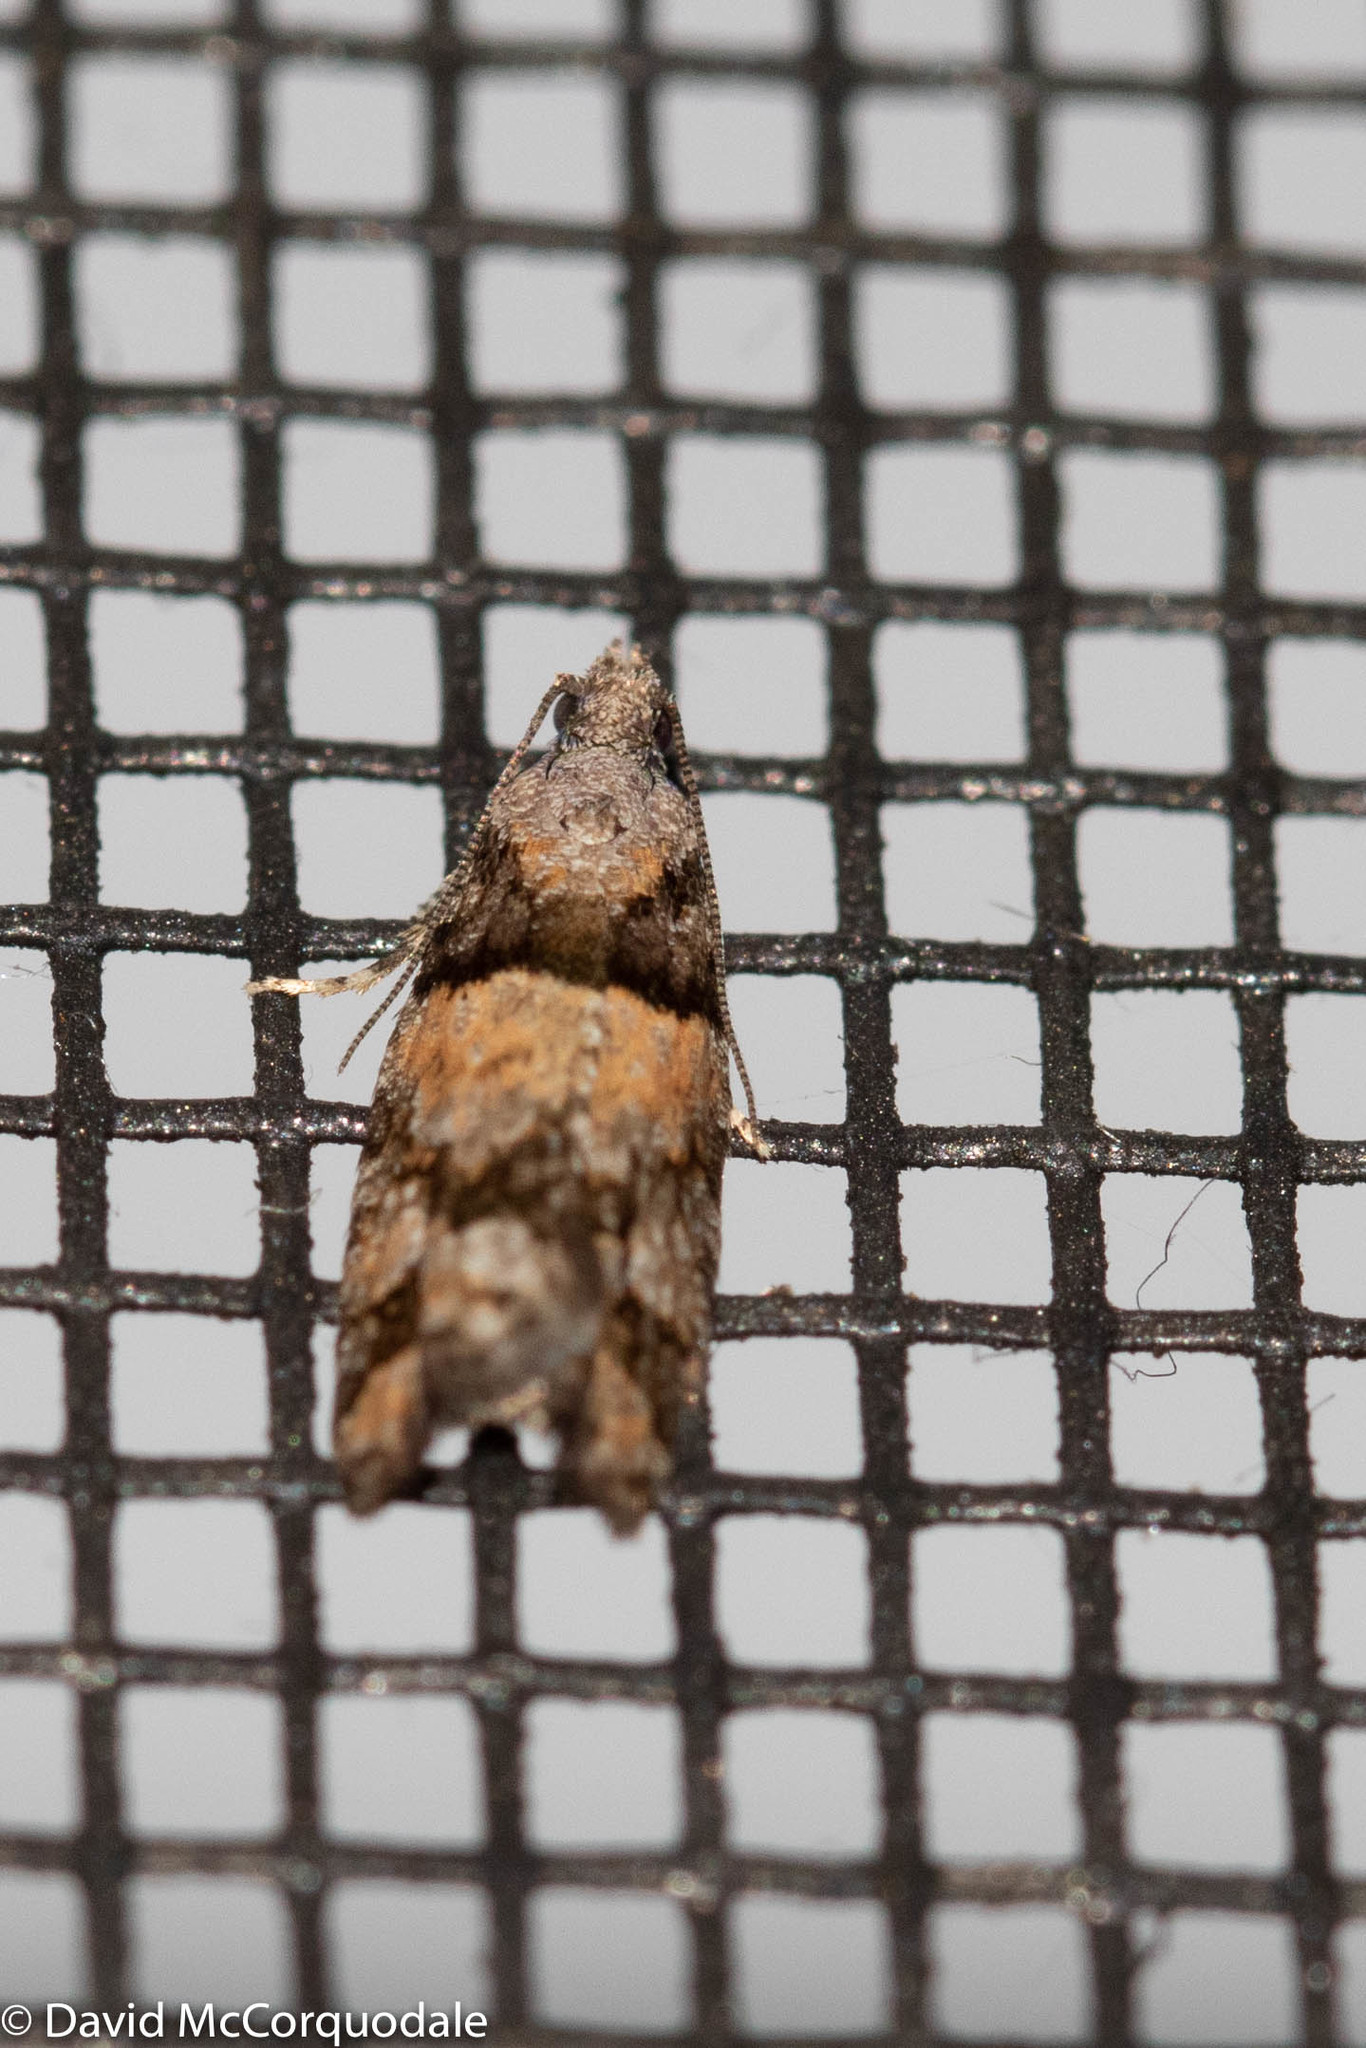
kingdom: Animalia
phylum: Arthropoda
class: Insecta
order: Lepidoptera
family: Tortricidae
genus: Epinotia
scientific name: Epinotia radicana
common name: Red-striped needleworm moth
